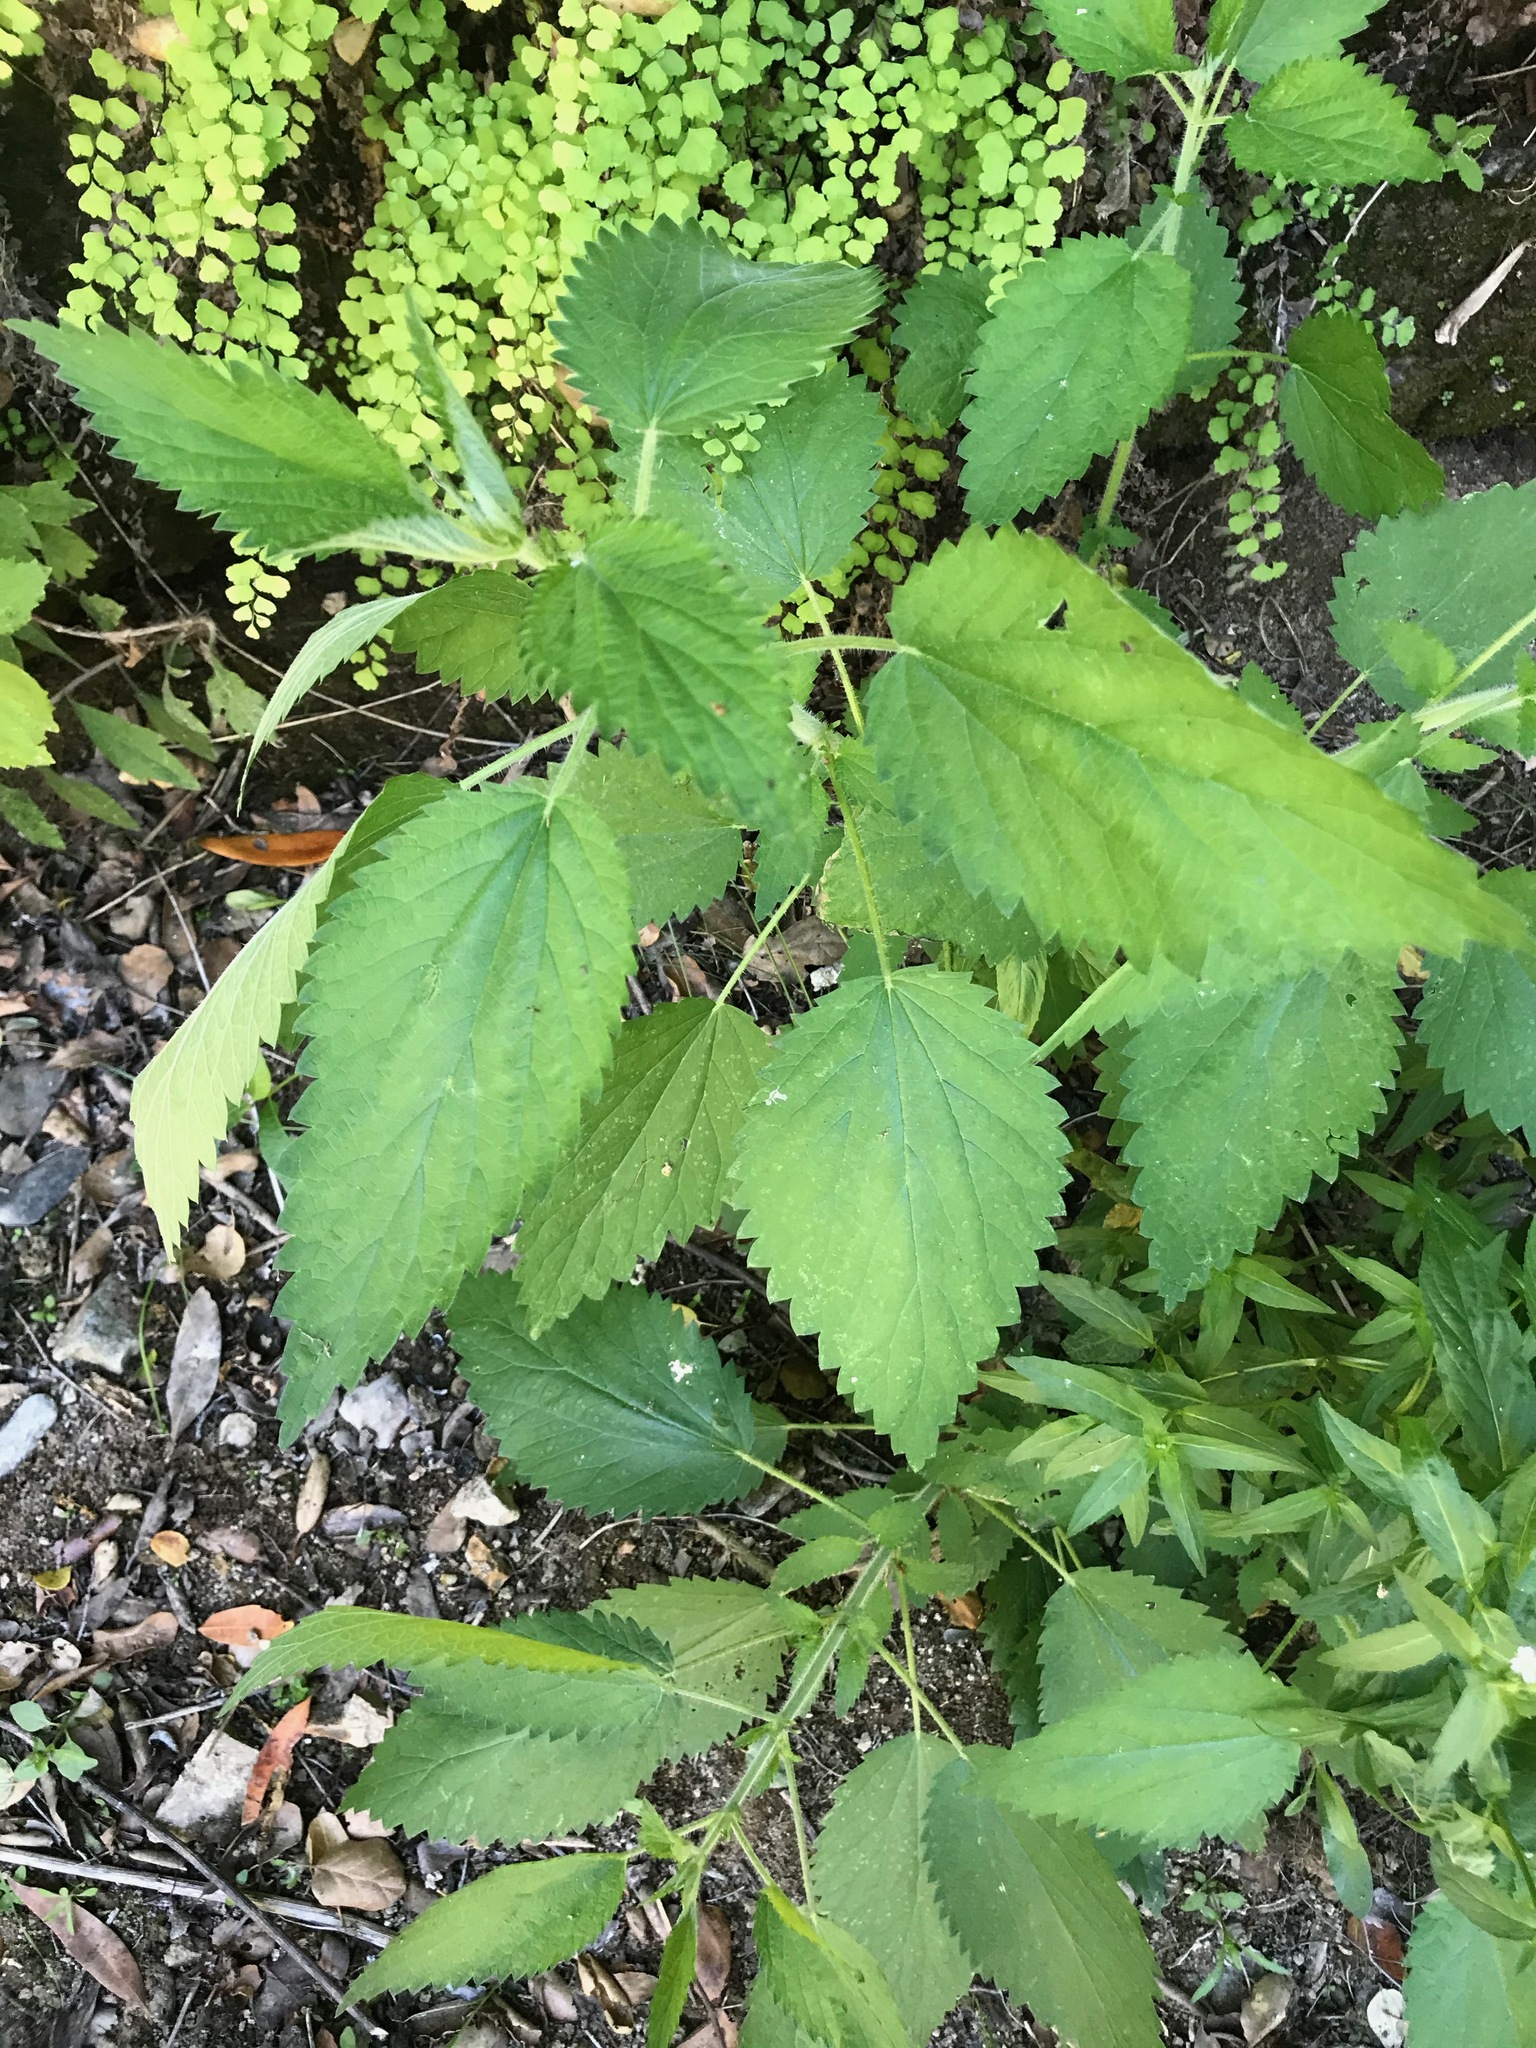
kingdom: Plantae
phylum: Tracheophyta
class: Magnoliopsida
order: Rosales
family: Urticaceae
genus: Urtica
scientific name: Urtica dioica
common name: Common nettle
